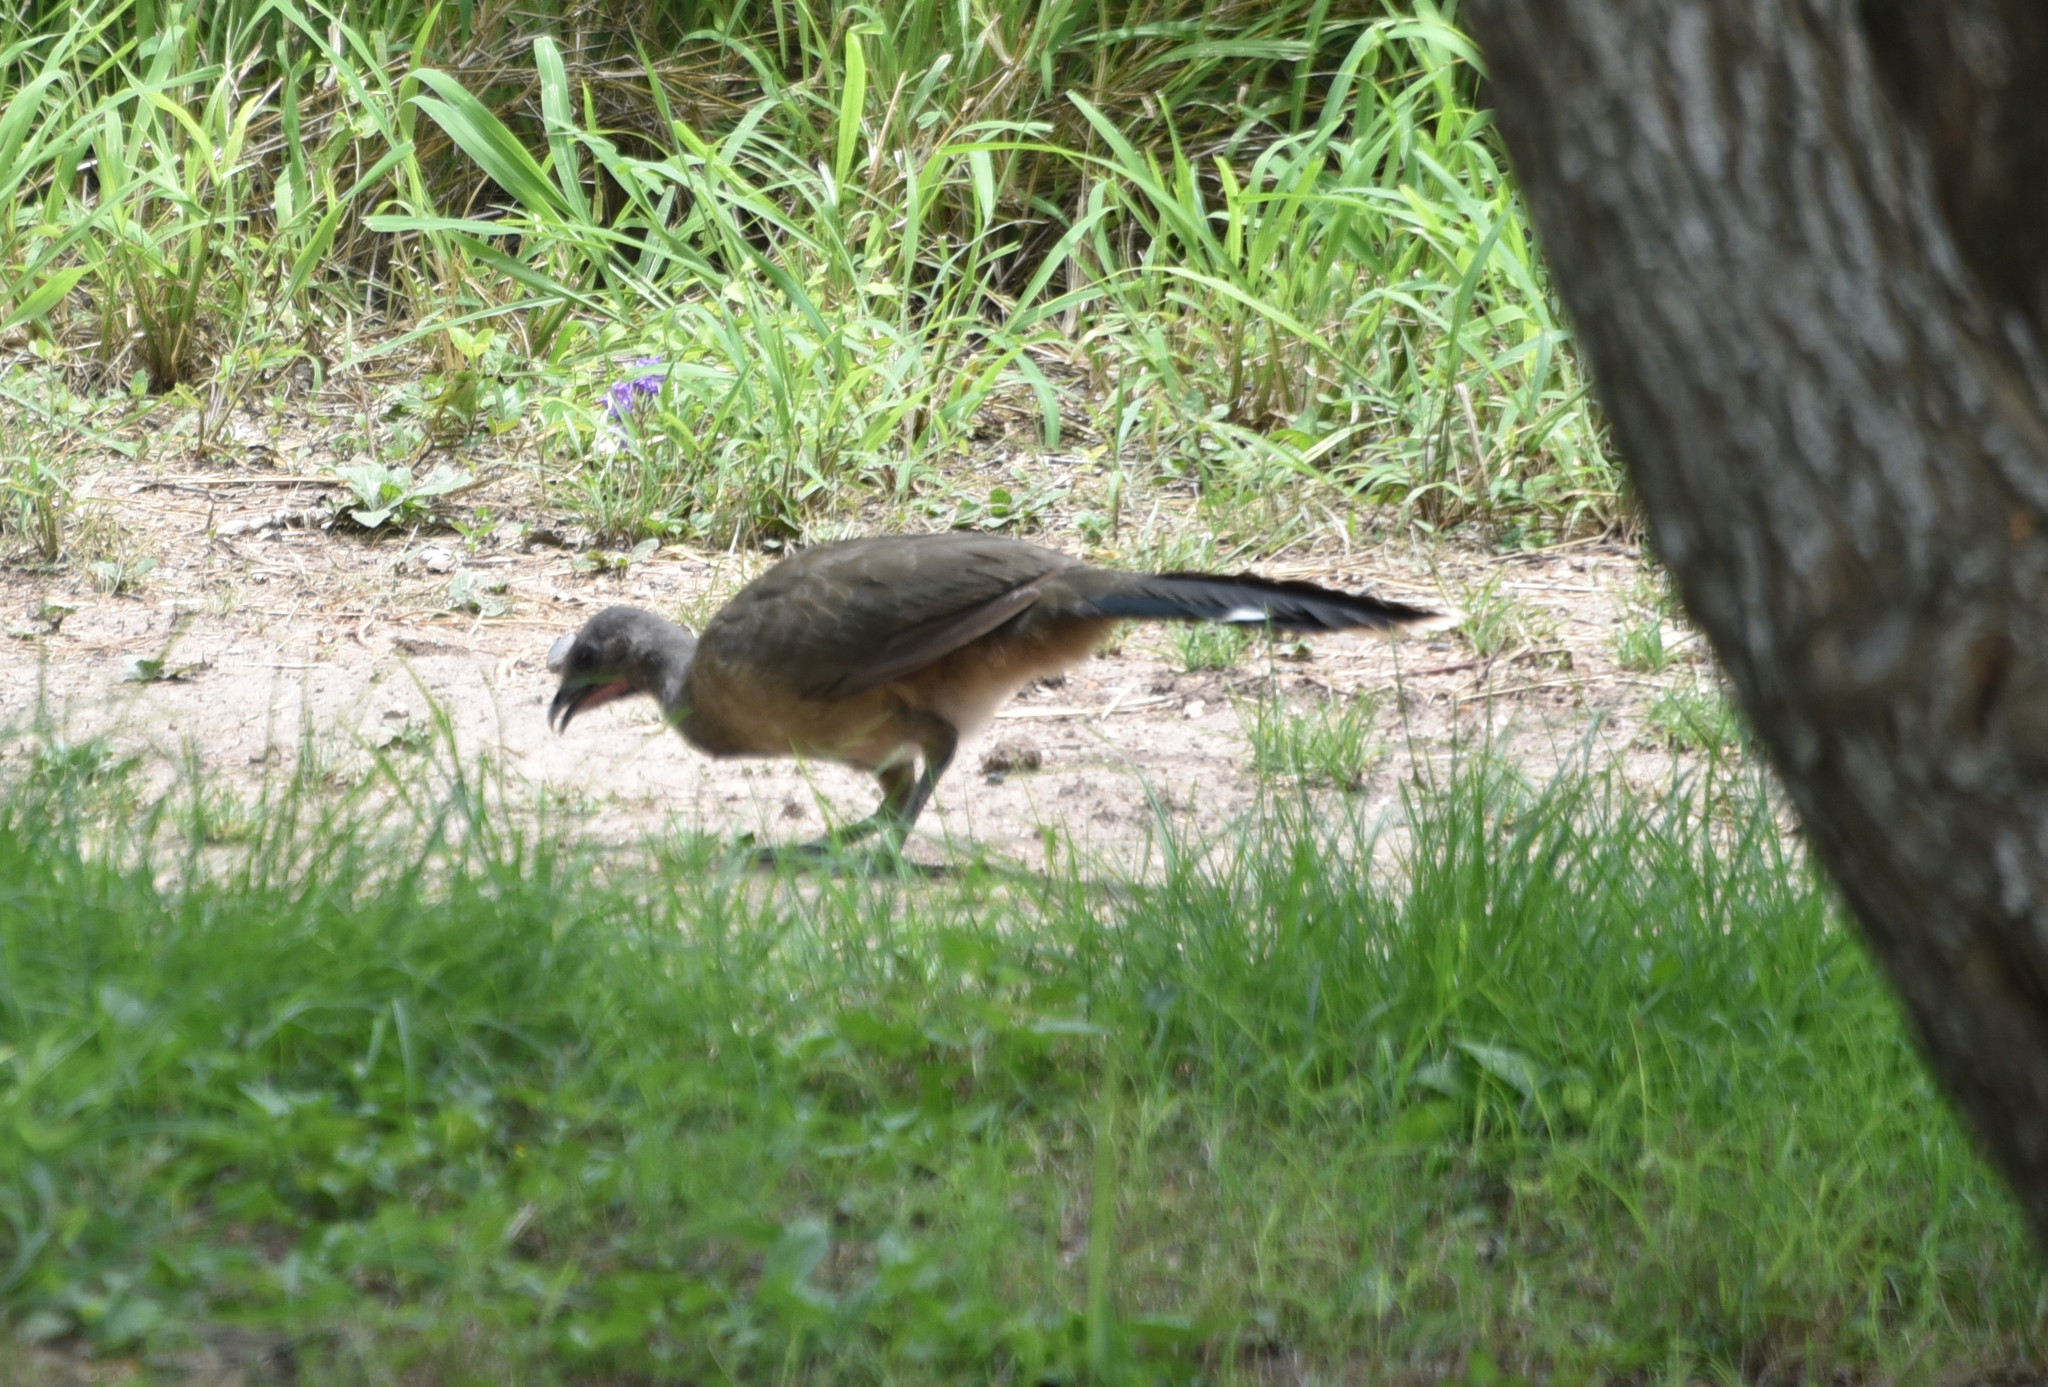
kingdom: Animalia
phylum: Chordata
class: Aves
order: Galliformes
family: Cracidae
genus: Ortalis
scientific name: Ortalis vetula
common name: Plain chachalaca
